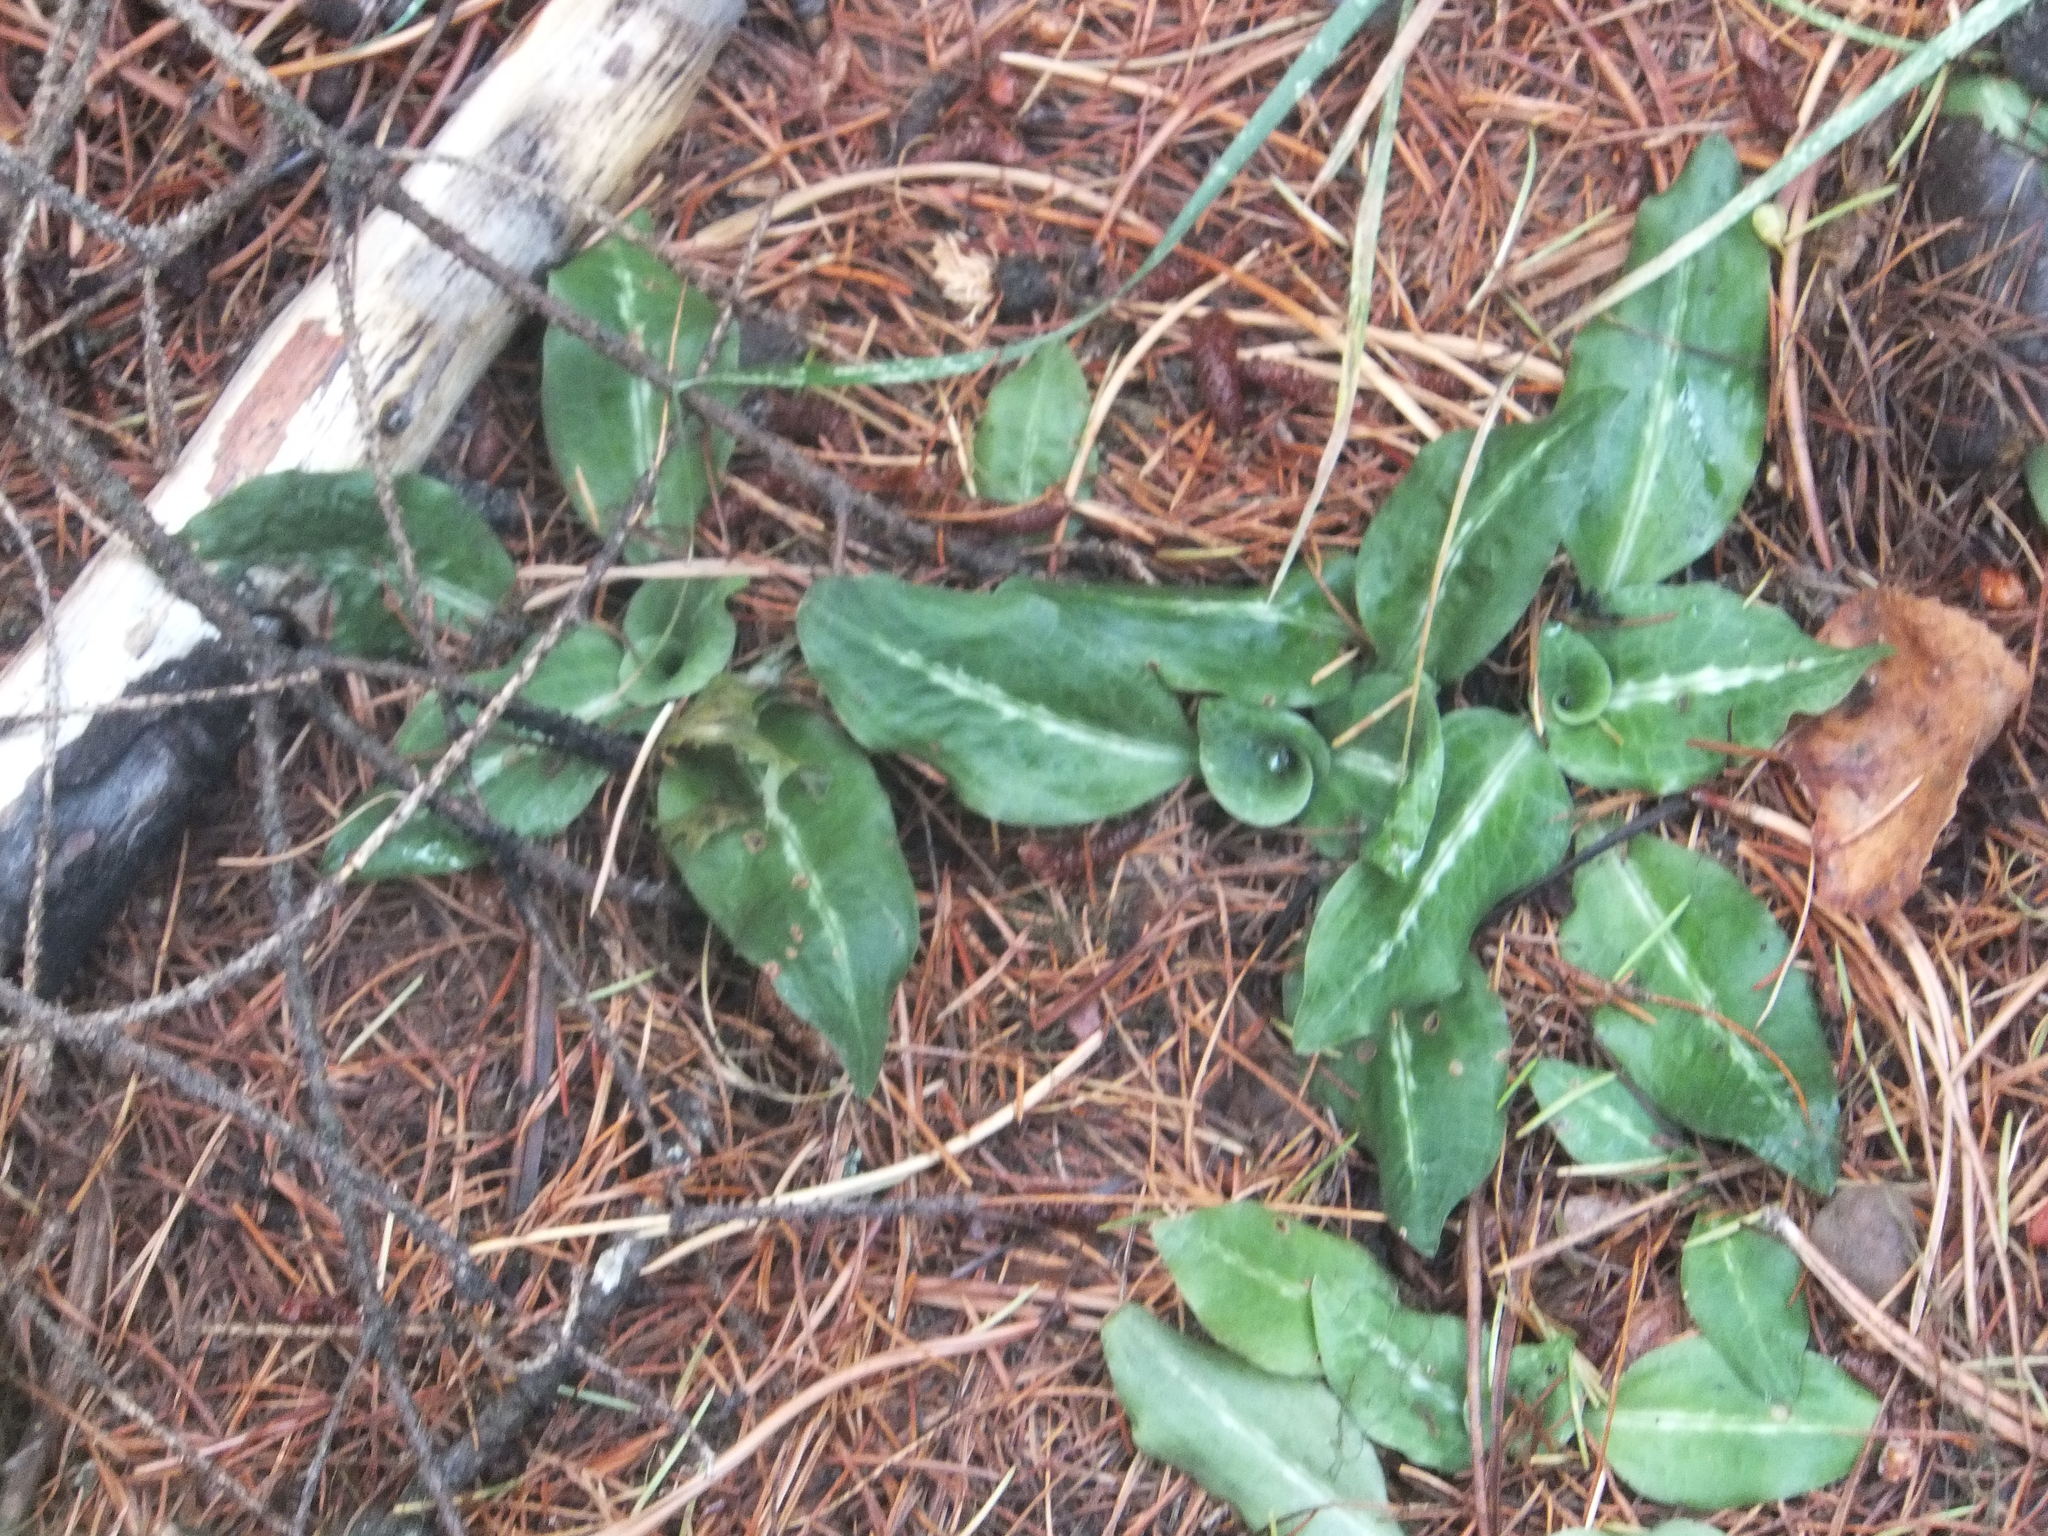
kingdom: Plantae
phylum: Tracheophyta
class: Liliopsida
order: Asparagales
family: Orchidaceae
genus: Goodyera
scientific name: Goodyera oblongifolia
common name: Giant rattlesnake-plantain
